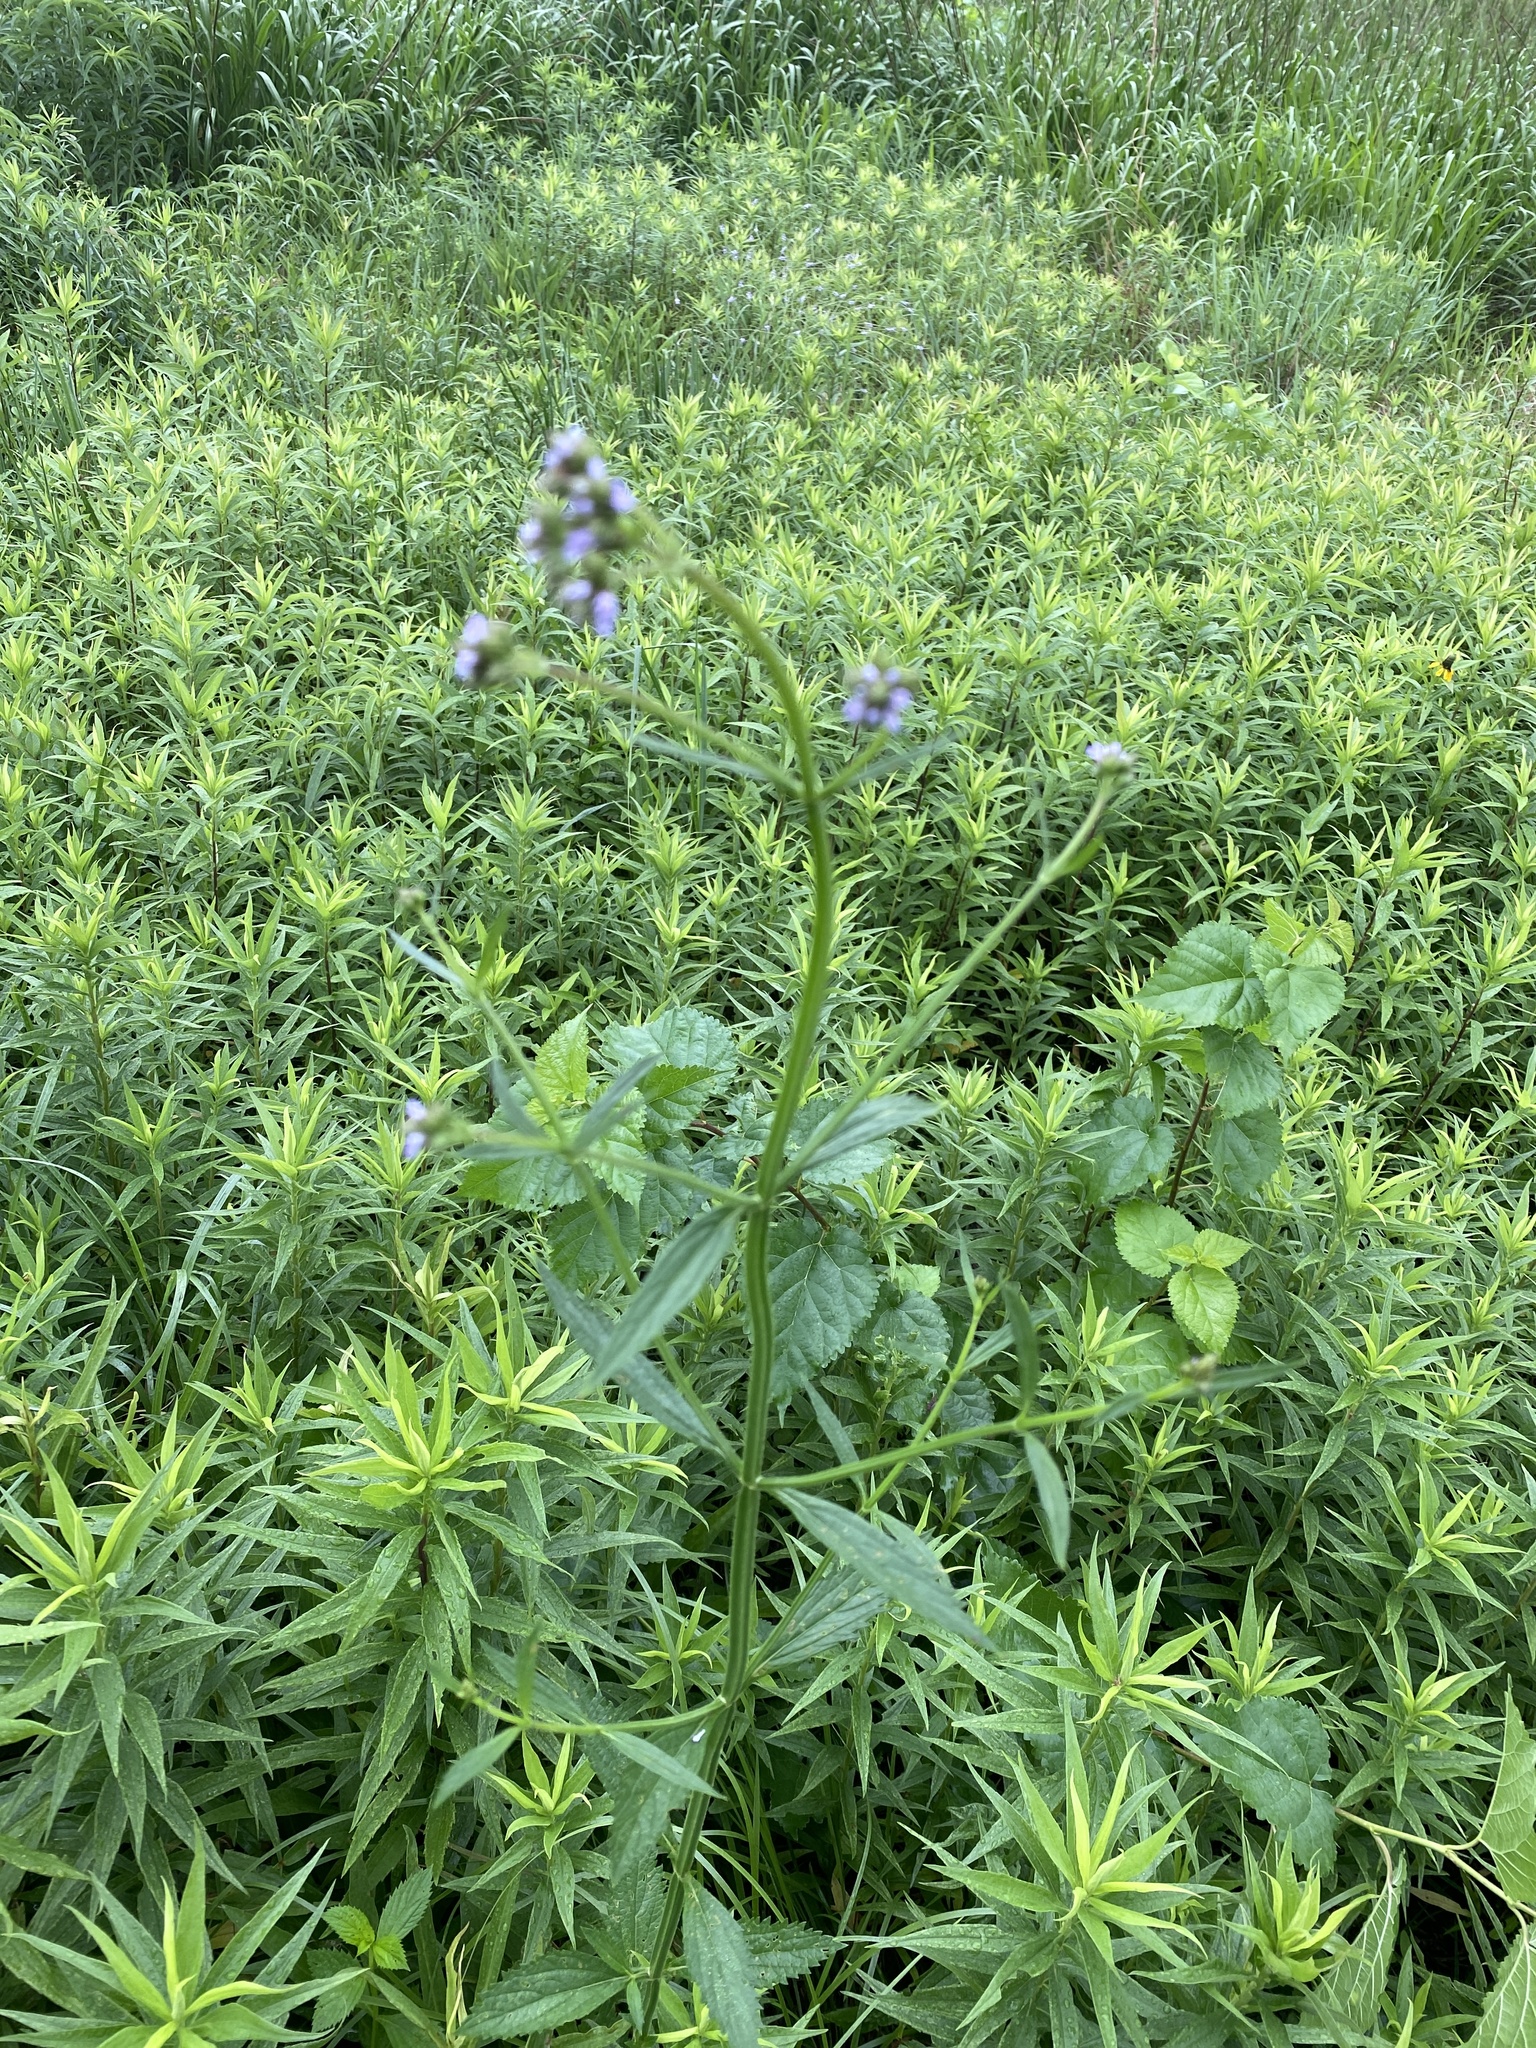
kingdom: Plantae
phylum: Tracheophyta
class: Magnoliopsida
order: Lamiales
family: Verbenaceae
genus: Verbena
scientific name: Verbena brasiliensis
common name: Brazilian vervain
